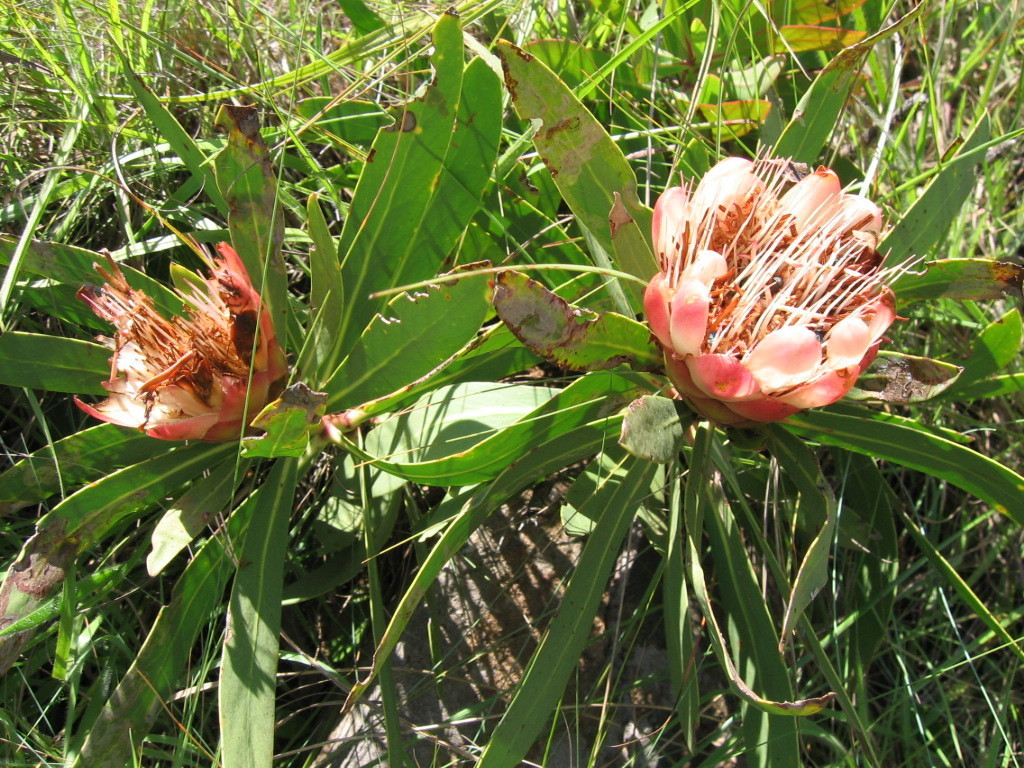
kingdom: Plantae
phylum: Tracheophyta
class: Magnoliopsida
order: Proteales
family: Proteaceae
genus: Protea
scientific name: Protea dracomontana
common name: Drakensberg dwarf sugarbush
